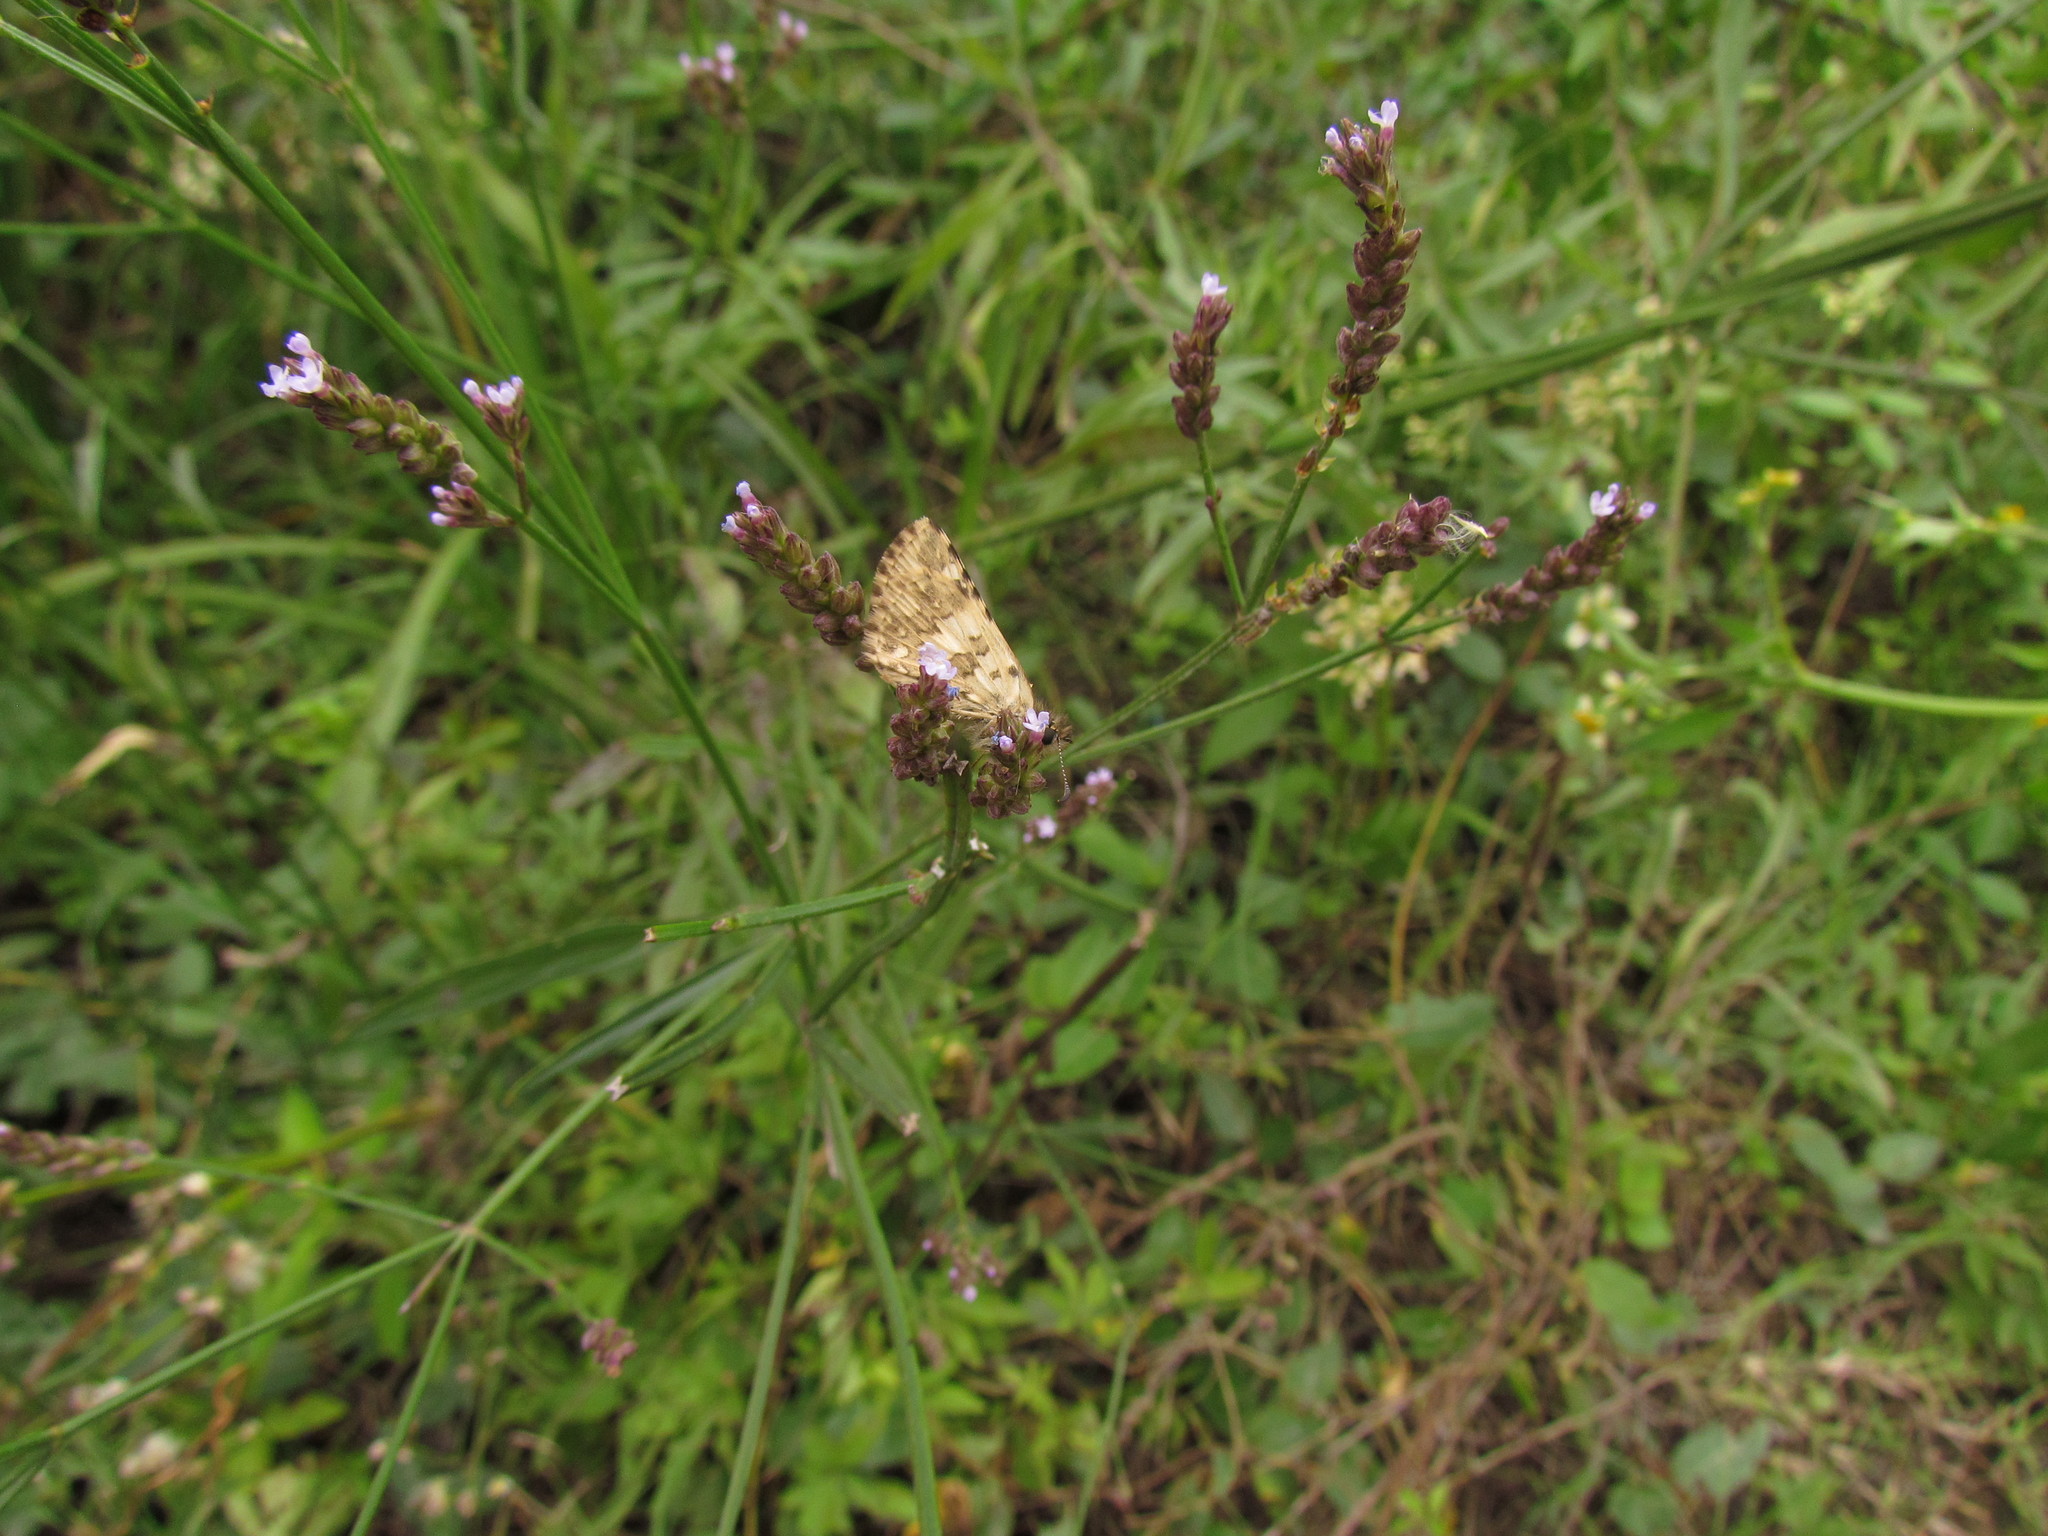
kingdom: Animalia
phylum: Arthropoda
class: Insecta
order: Lepidoptera
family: Hesperiidae
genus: Burnsius
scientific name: Burnsius orcynoides
